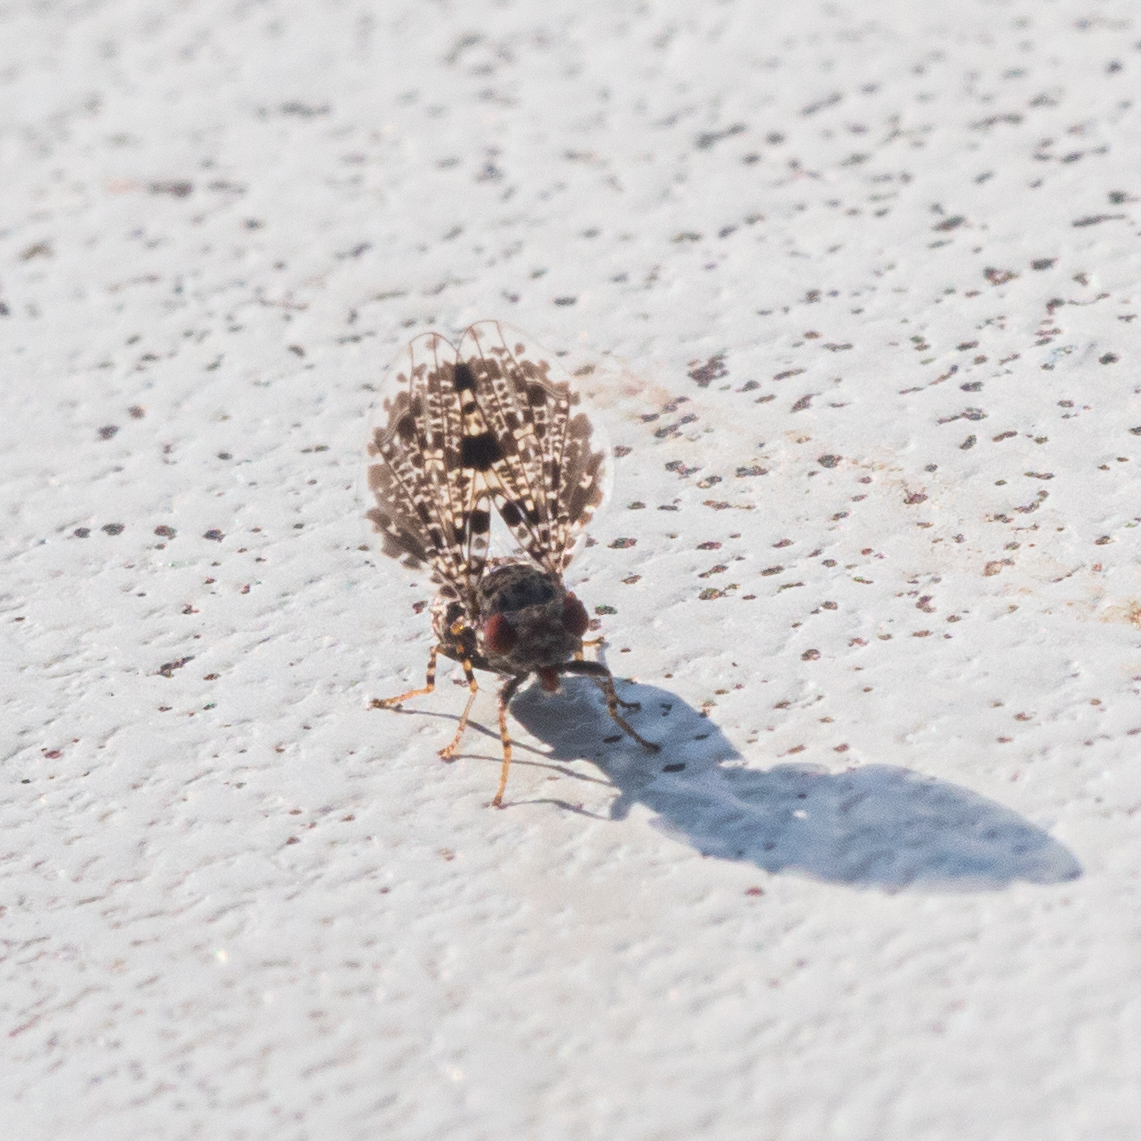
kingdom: Animalia
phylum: Arthropoda
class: Insecta
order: Diptera
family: Ulidiidae
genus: Callopistromyia
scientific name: Callopistromyia annulipes
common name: Peacock fly
